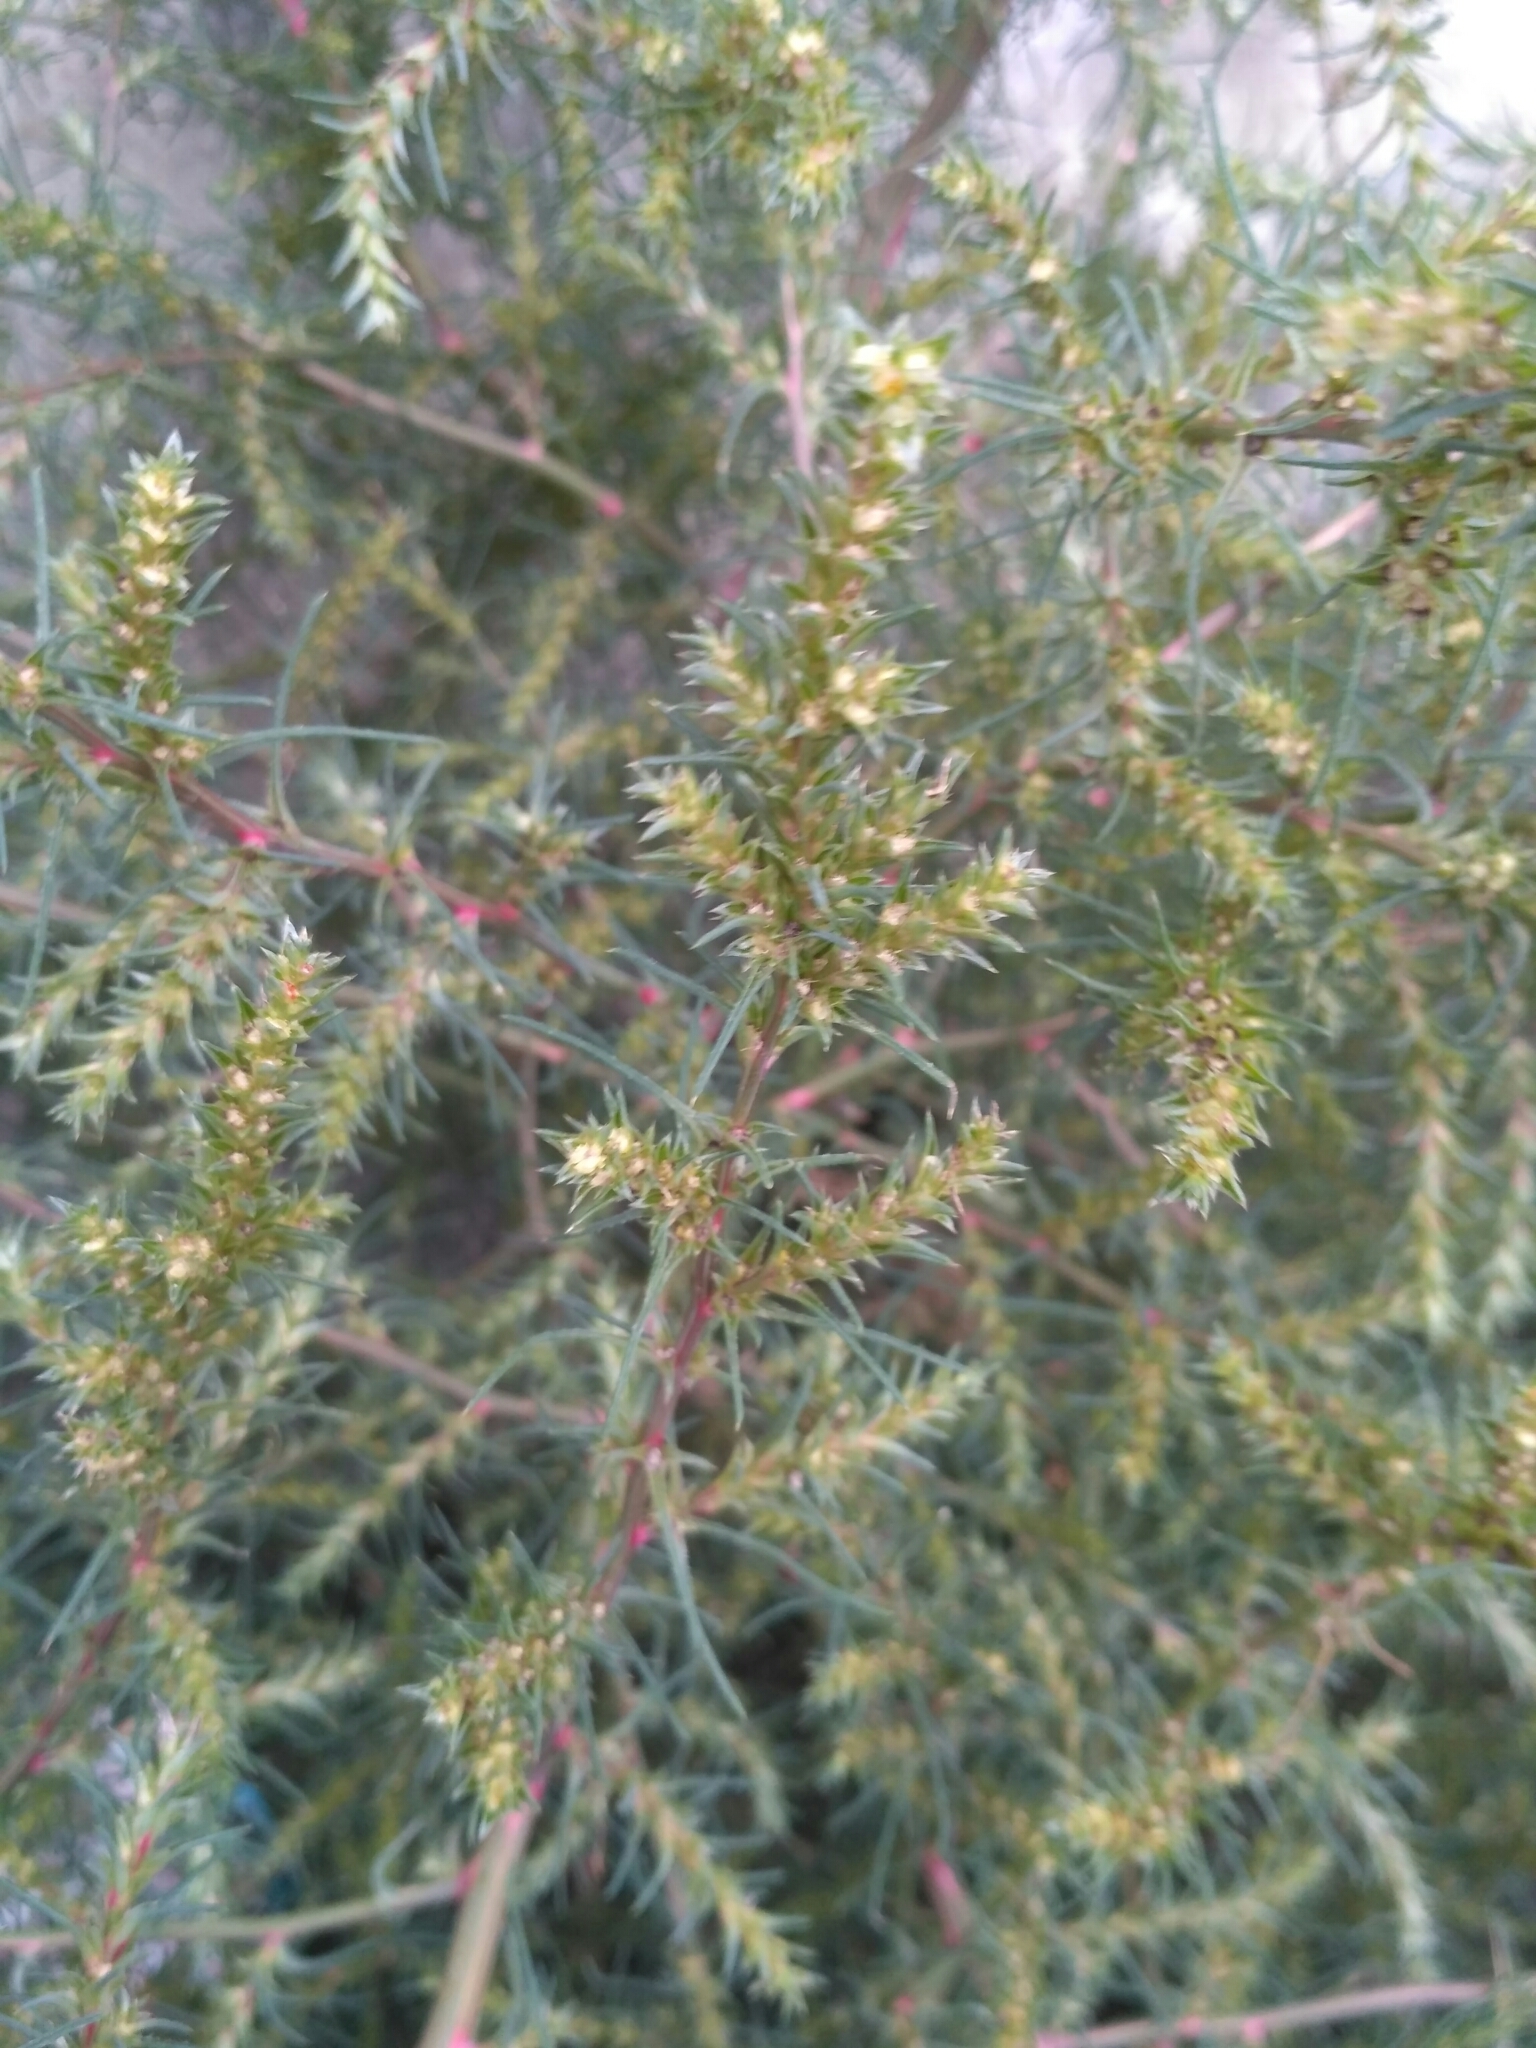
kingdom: Plantae
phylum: Tracheophyta
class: Magnoliopsida
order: Caryophyllales
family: Amaranthaceae
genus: Salsola
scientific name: Salsola collina
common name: Tumbleweed
